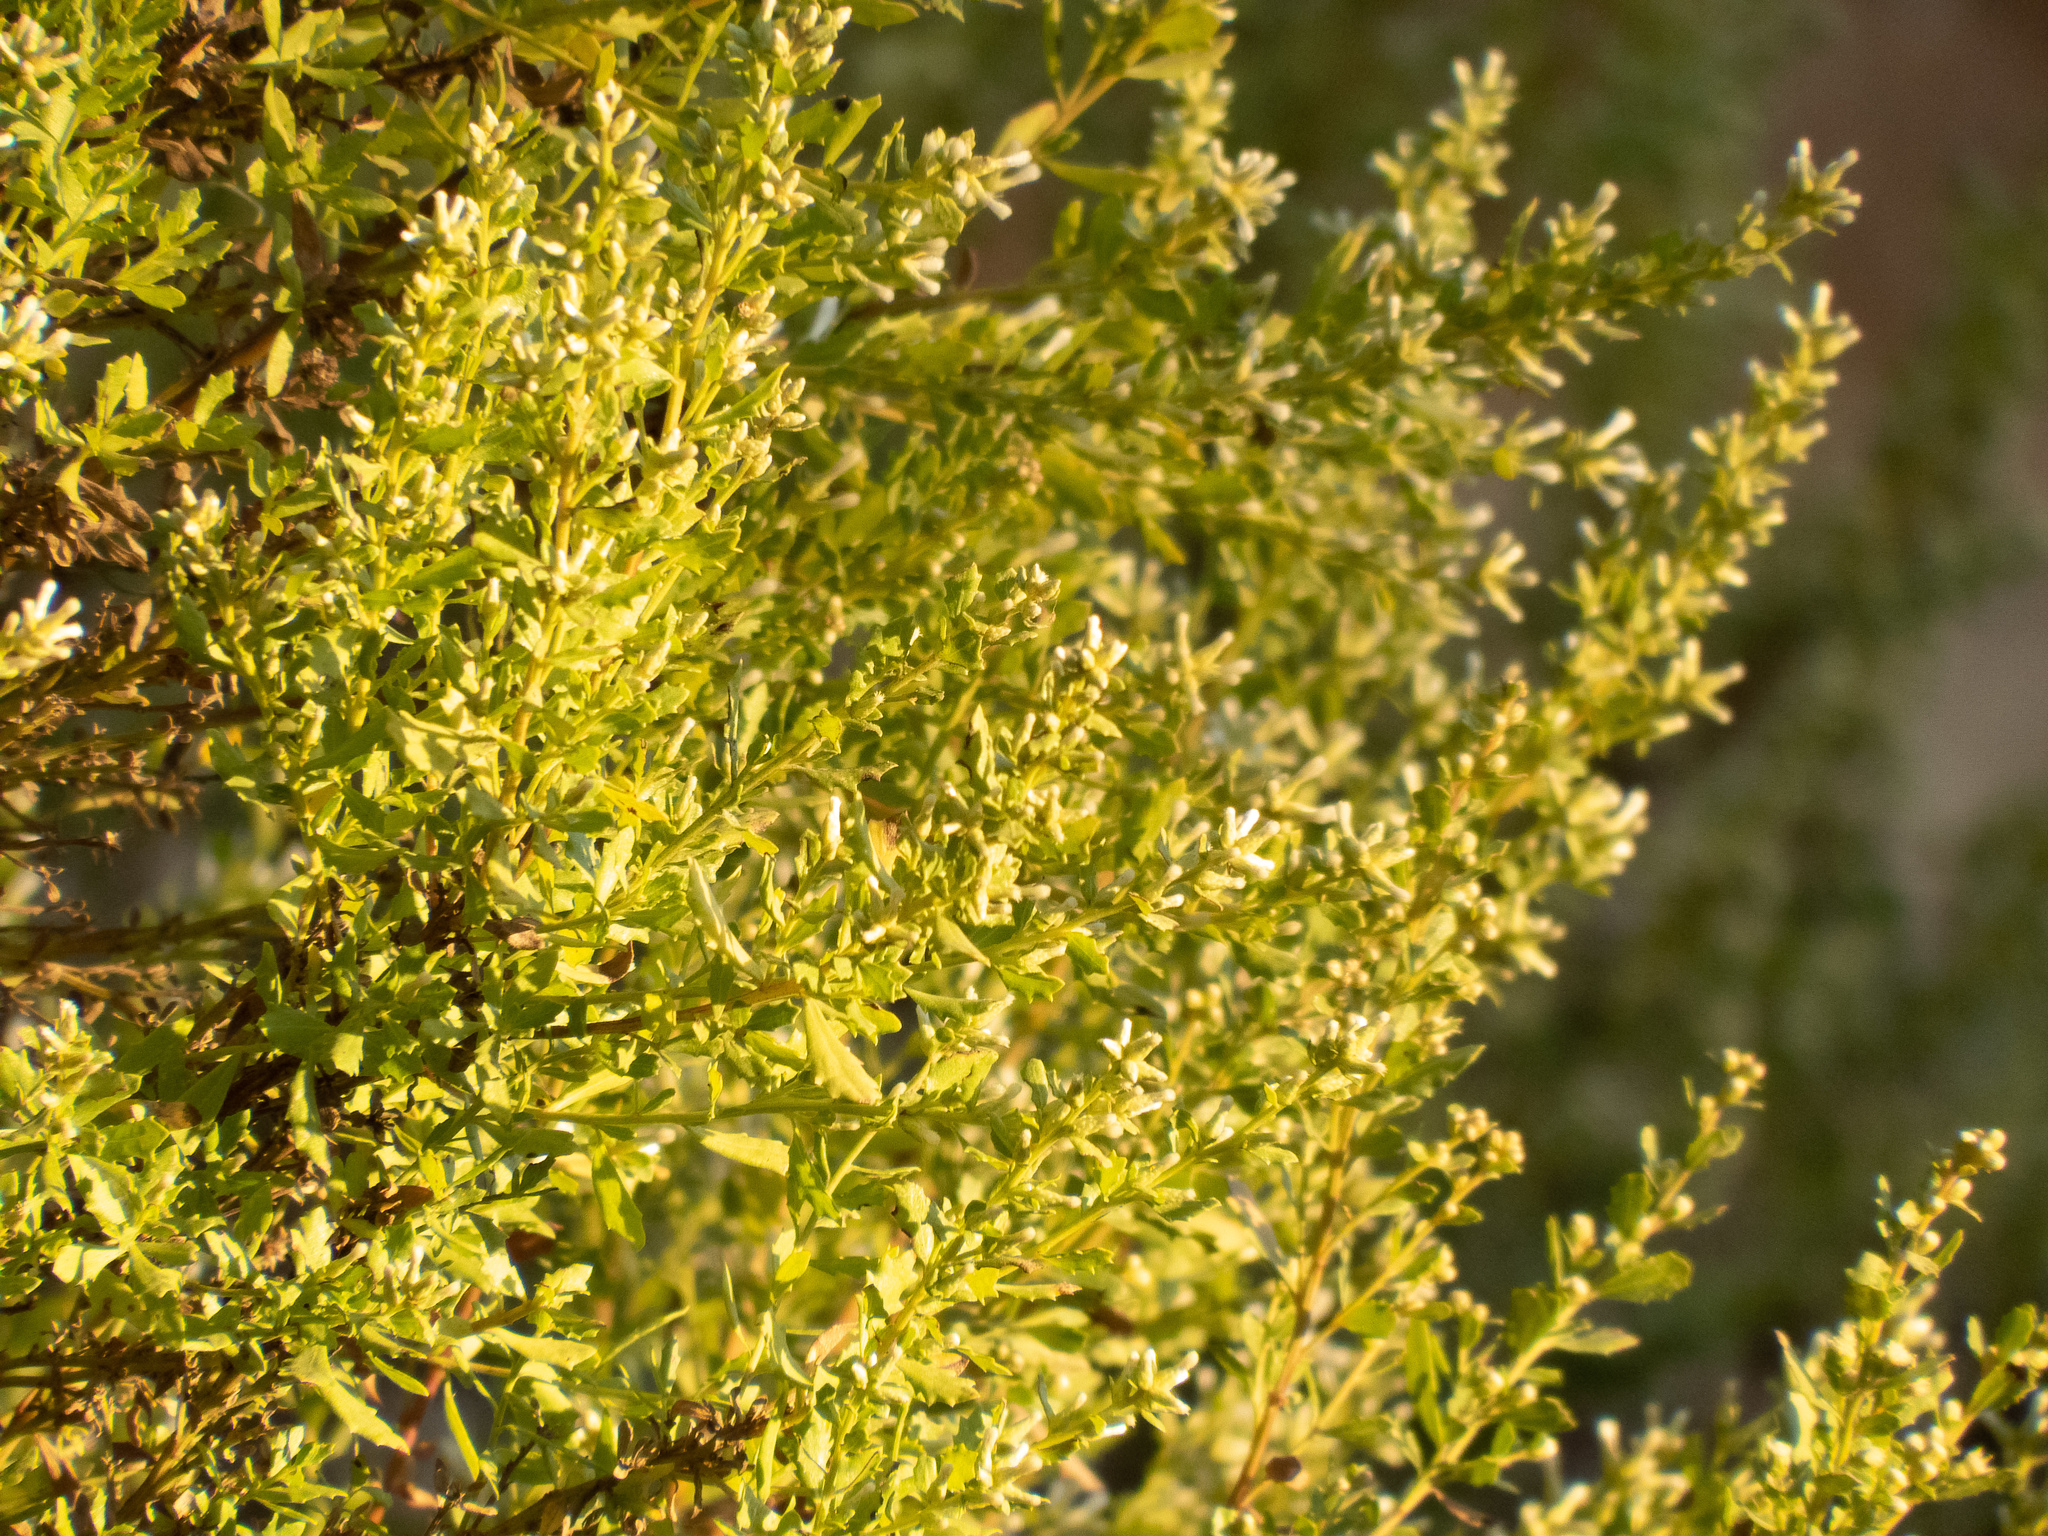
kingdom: Plantae
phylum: Tracheophyta
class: Magnoliopsida
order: Asterales
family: Asteraceae
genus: Baccharis
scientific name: Baccharis pilularis
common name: Coyotebrush
